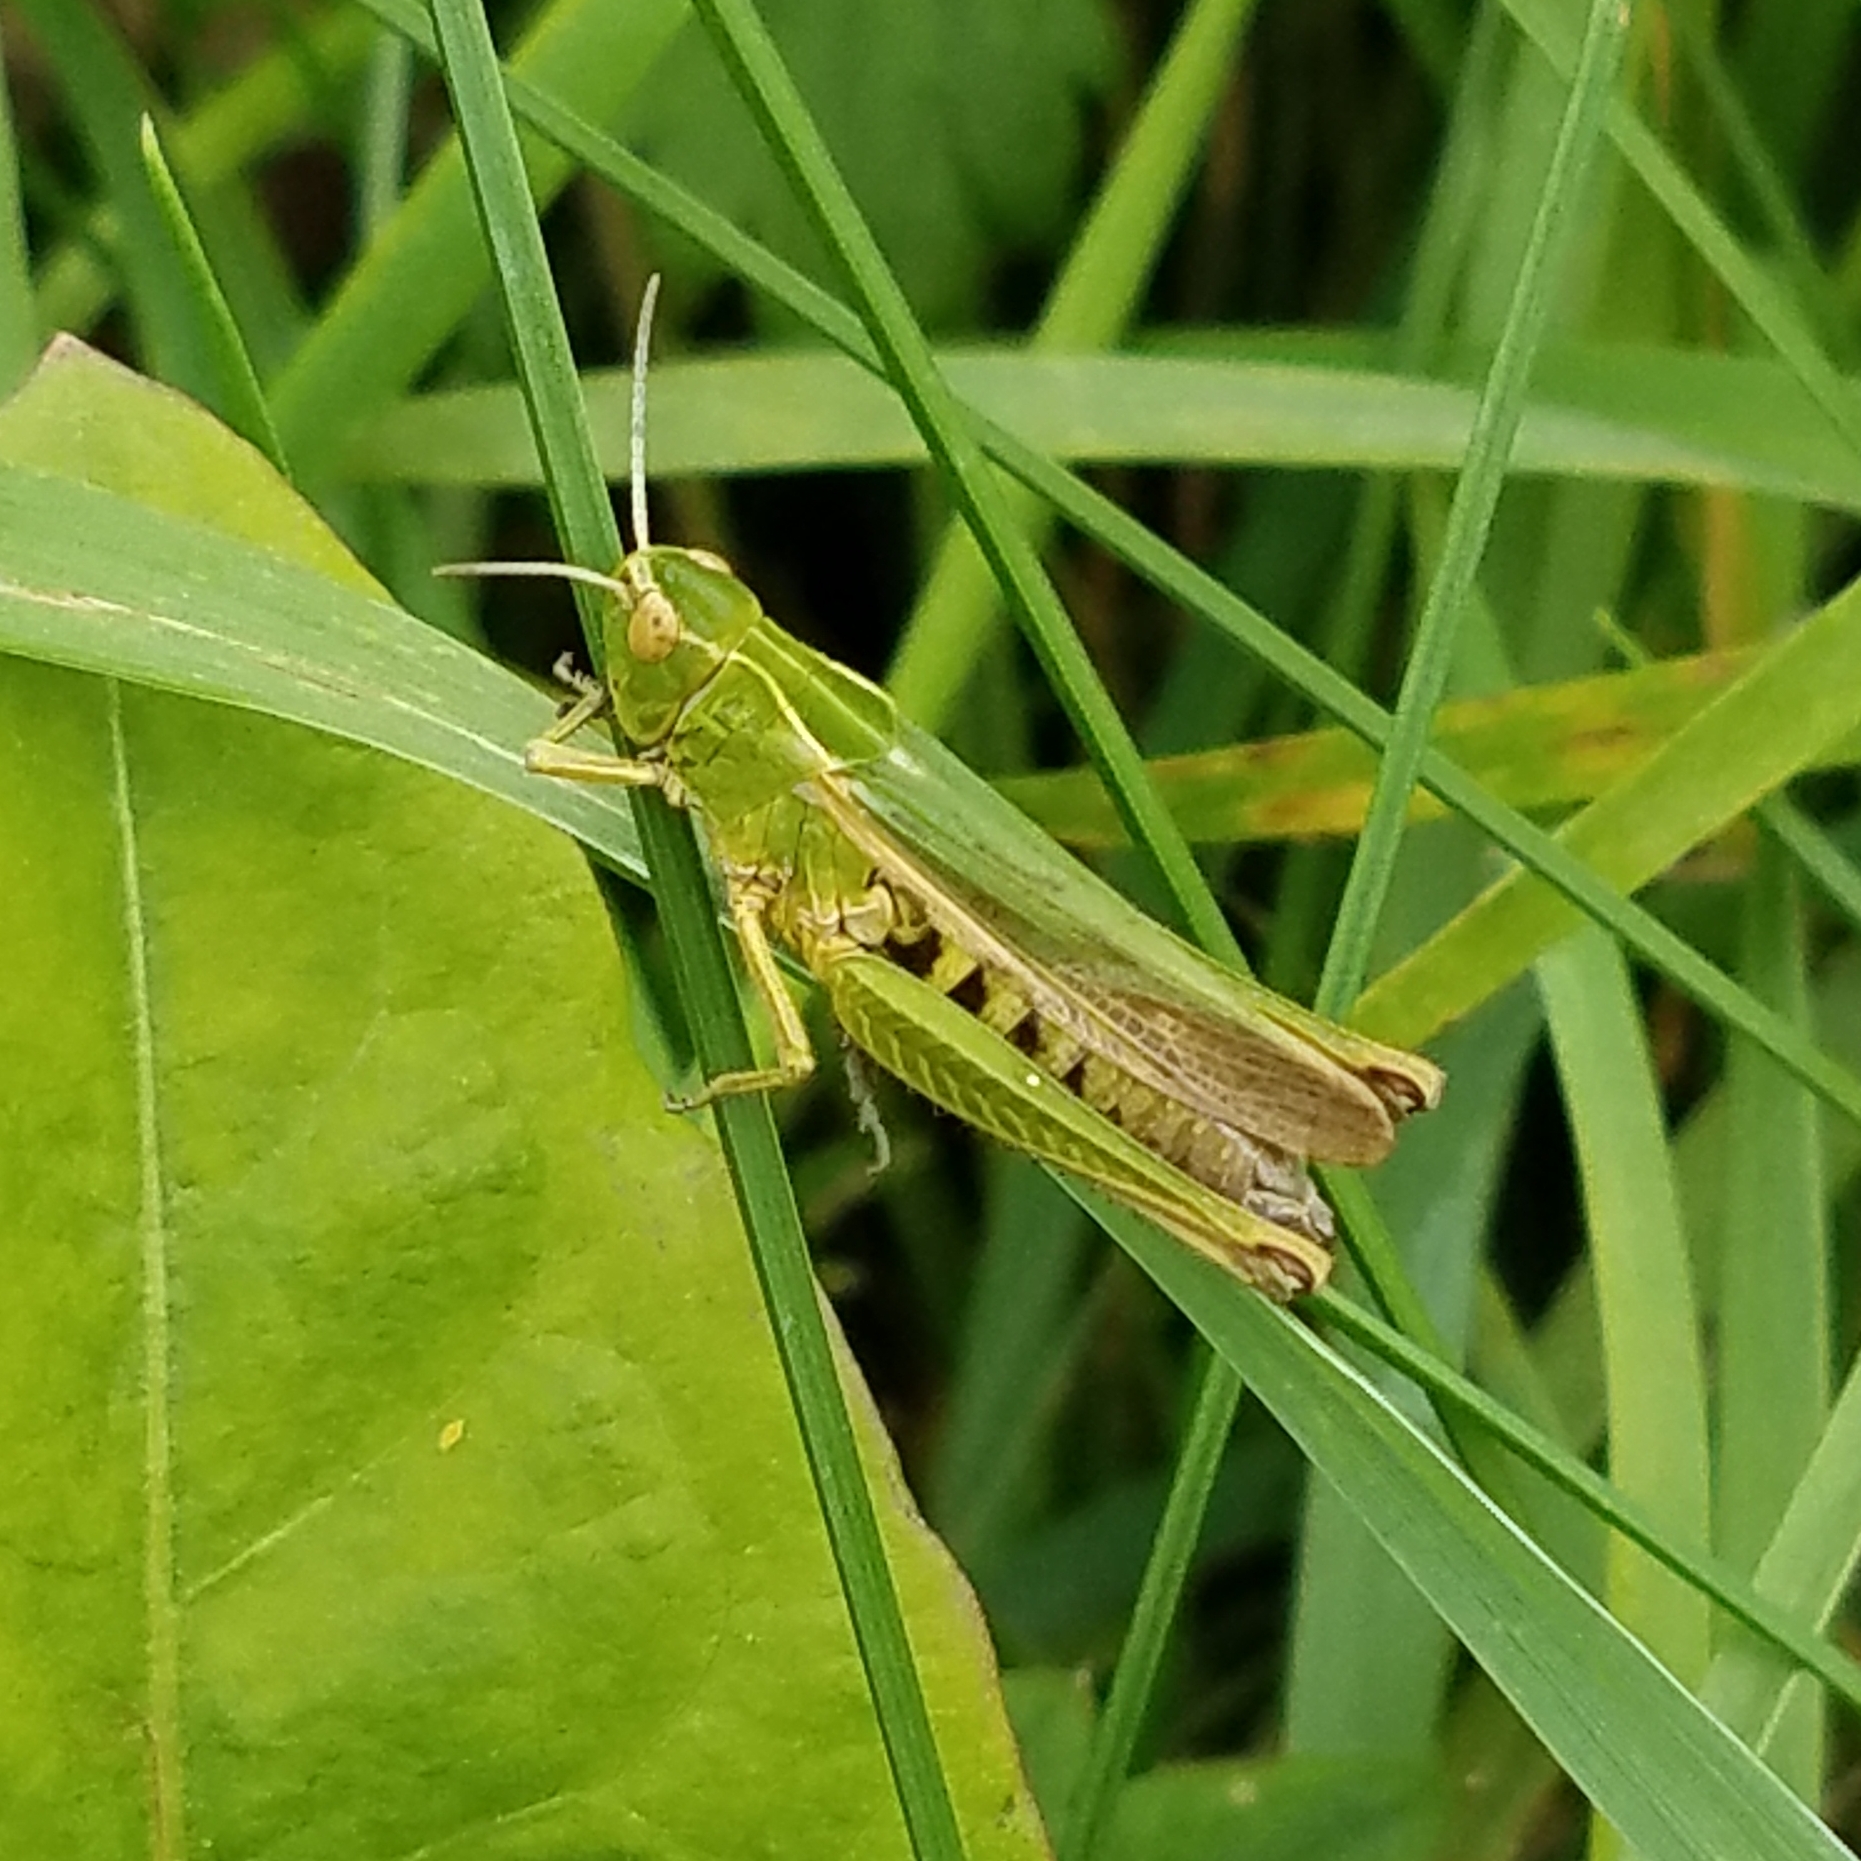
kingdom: Animalia
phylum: Arthropoda
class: Insecta
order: Orthoptera
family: Acrididae
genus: Omocestus
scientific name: Omocestus viridulus
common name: Common green grasshopper
